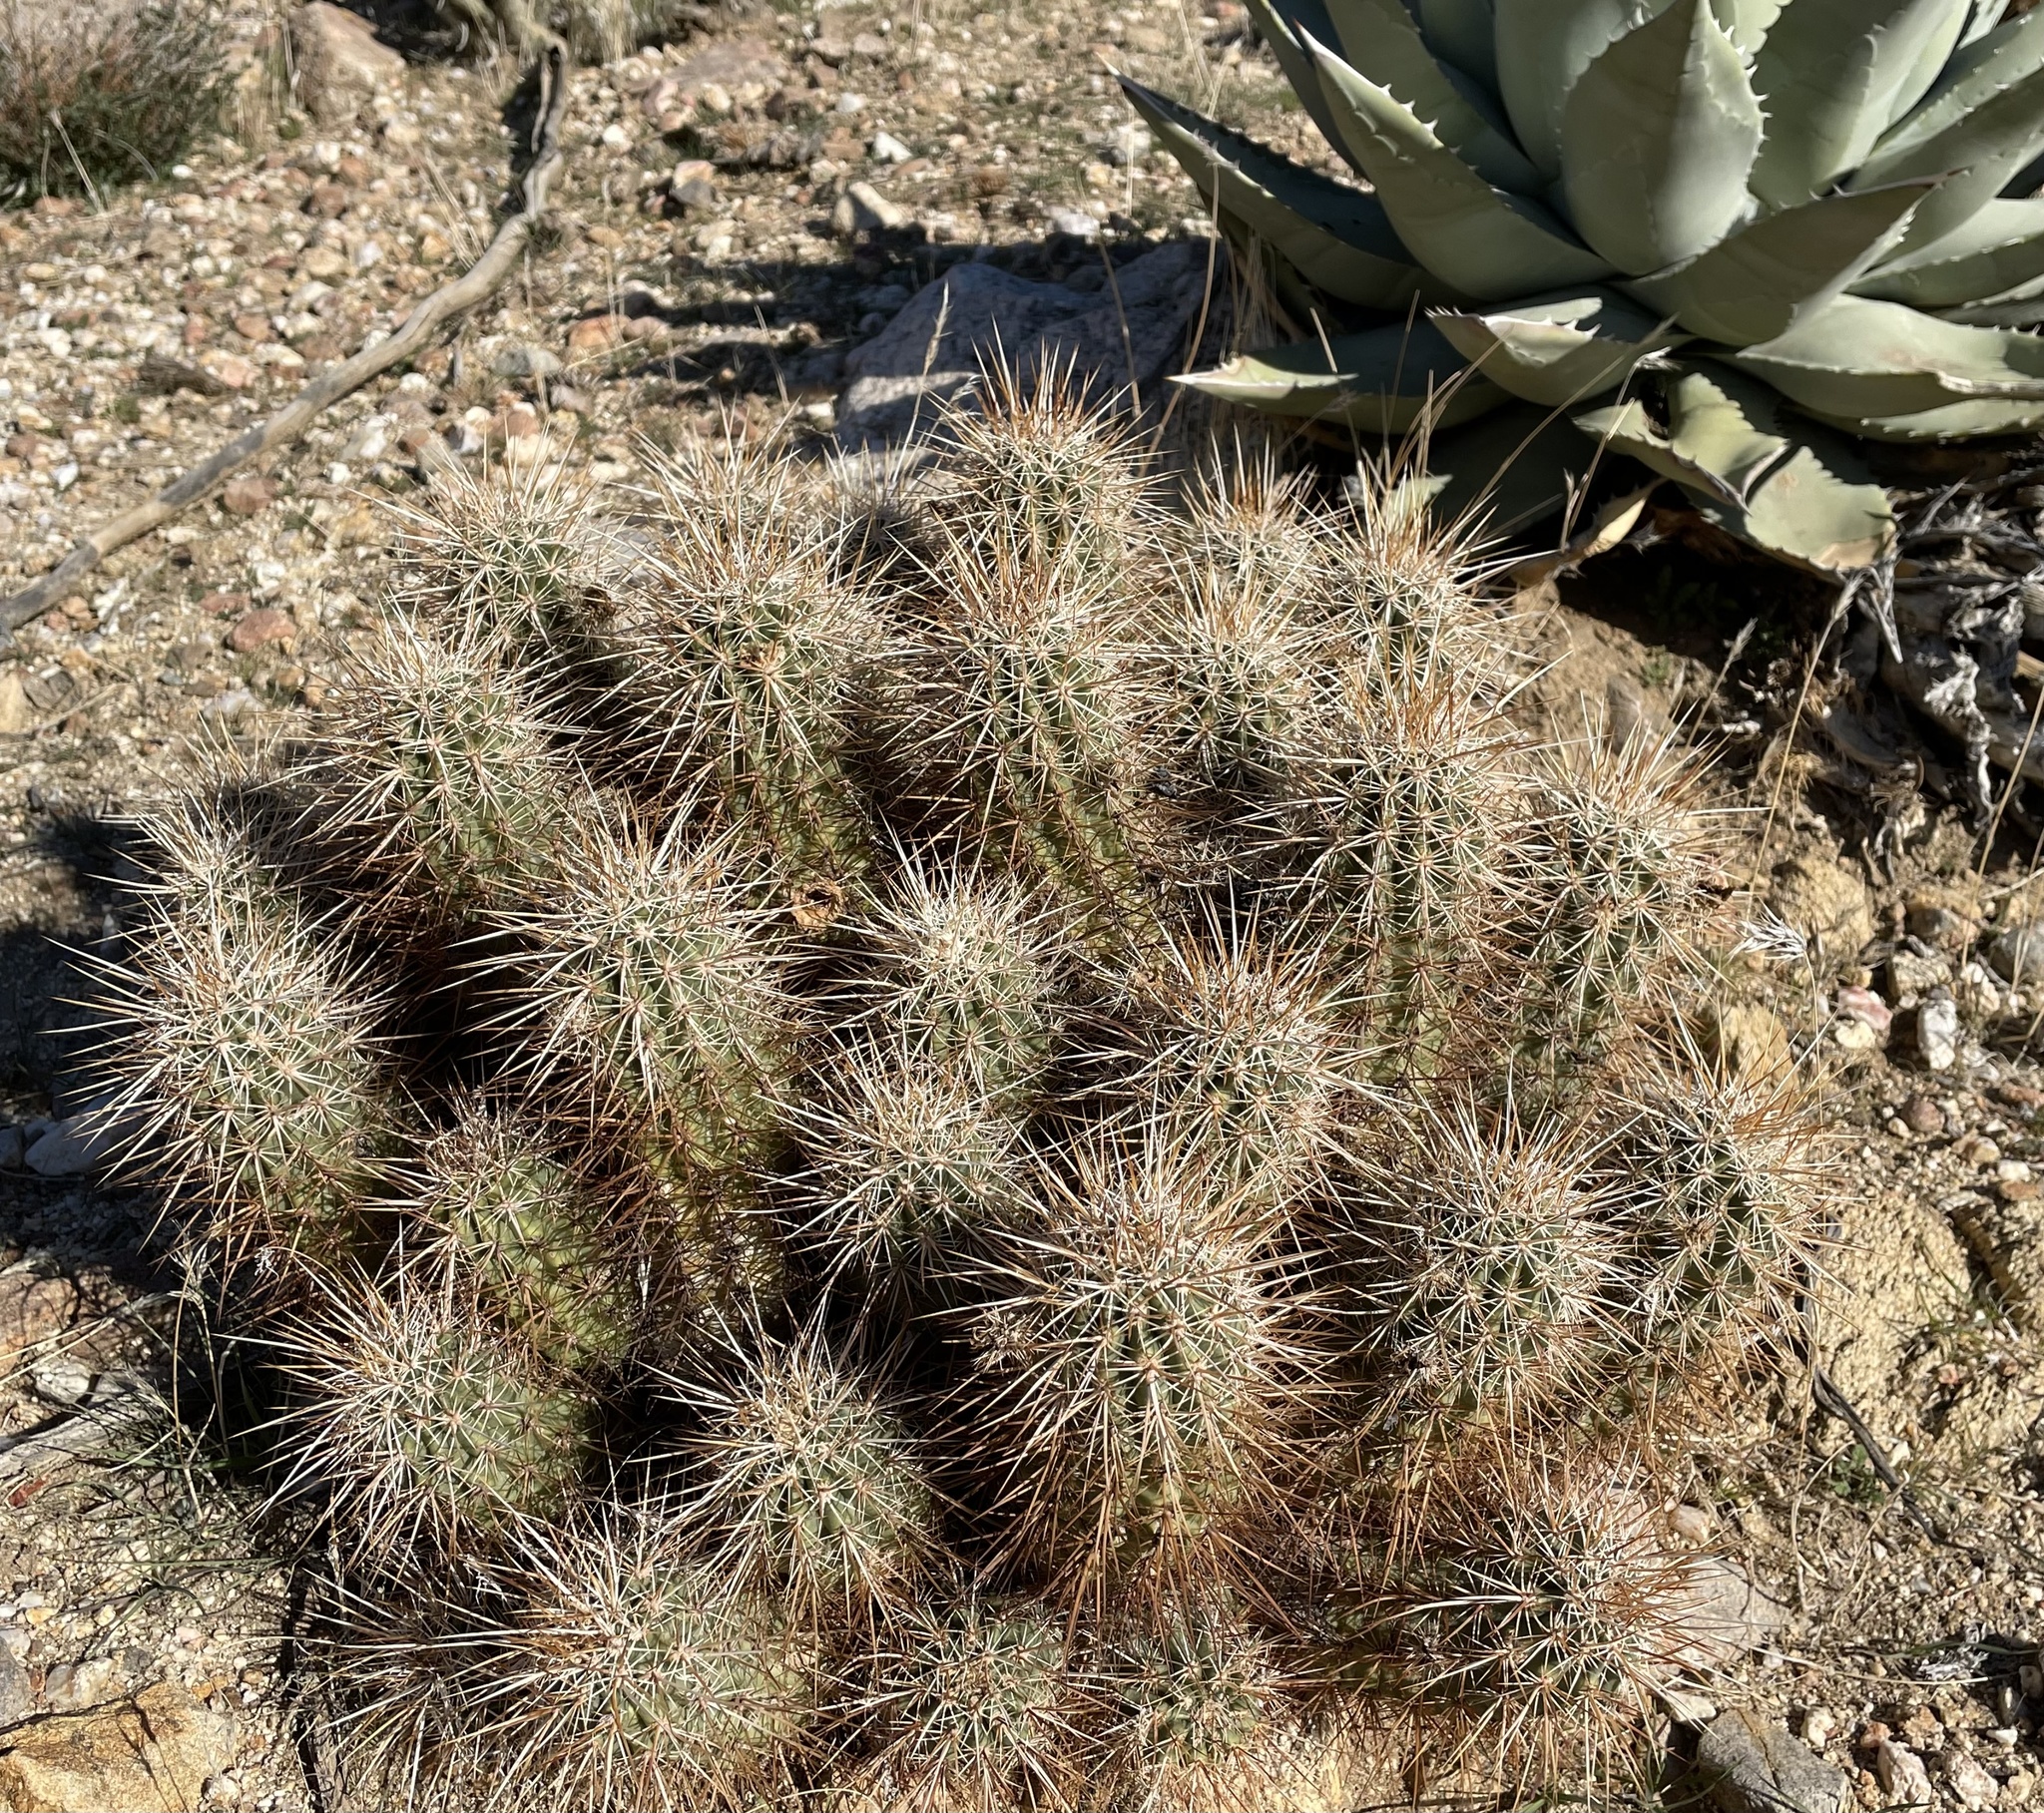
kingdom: Plantae
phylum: Tracheophyta
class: Magnoliopsida
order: Caryophyllales
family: Cactaceae
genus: Echinocereus
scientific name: Echinocereus engelmannii
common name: Engelmann's hedgehog cactus
